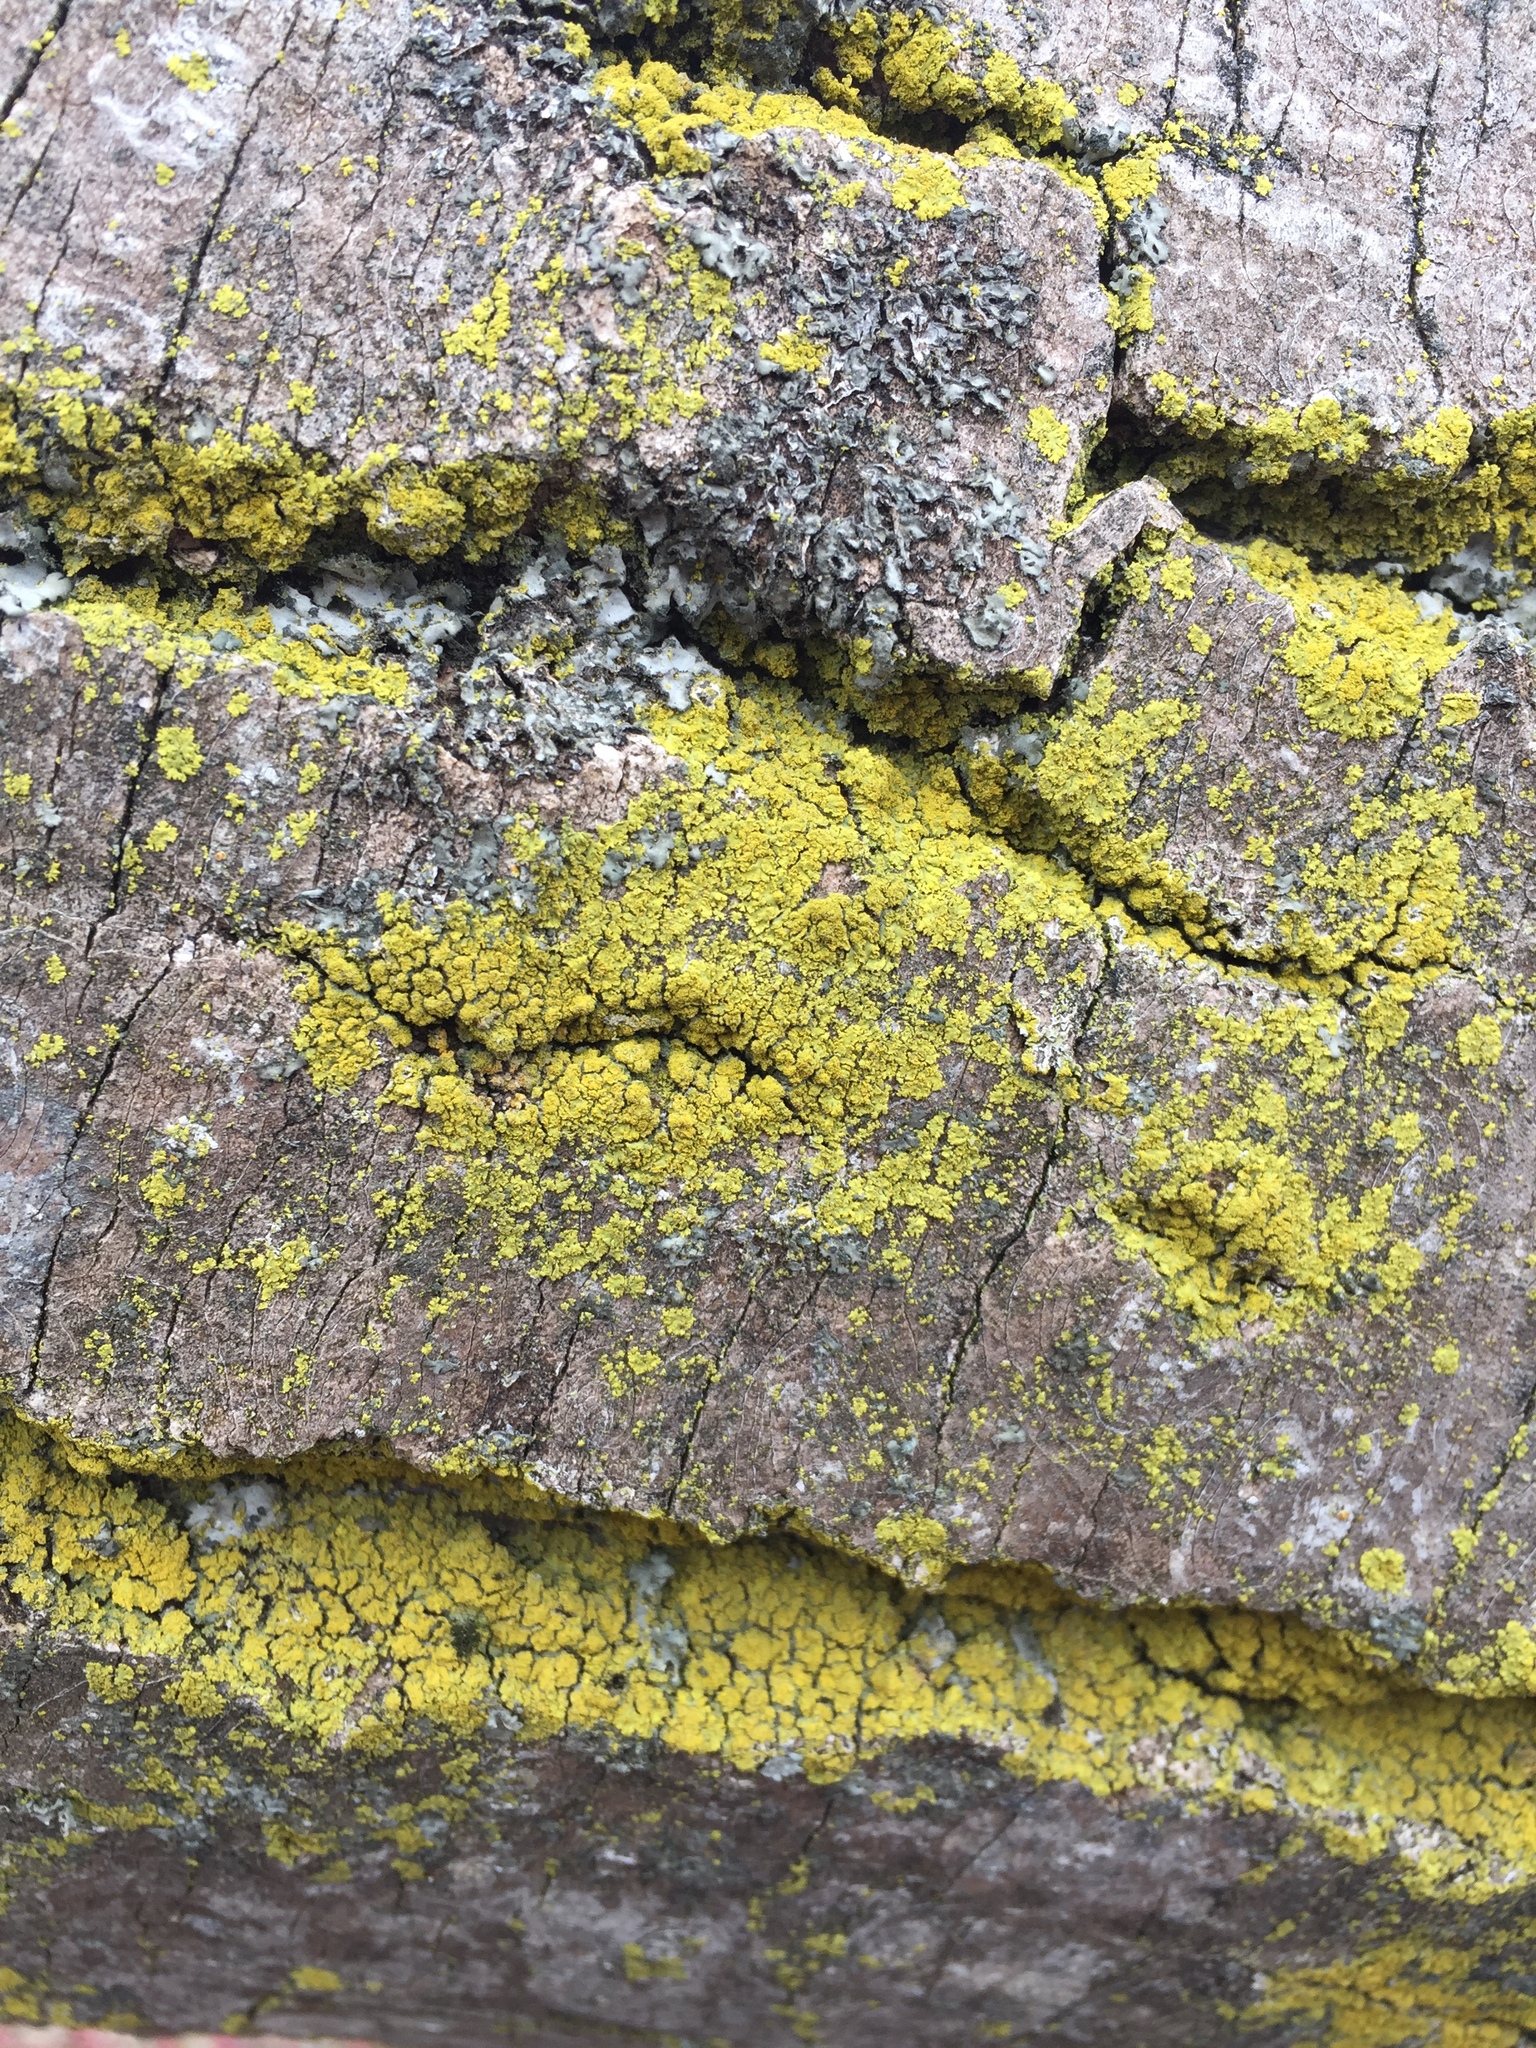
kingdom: Fungi
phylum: Ascomycota
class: Candelariomycetes
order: Candelariales
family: Candelariaceae
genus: Candelaria
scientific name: Candelaria concolor
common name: Candleflame lichen
